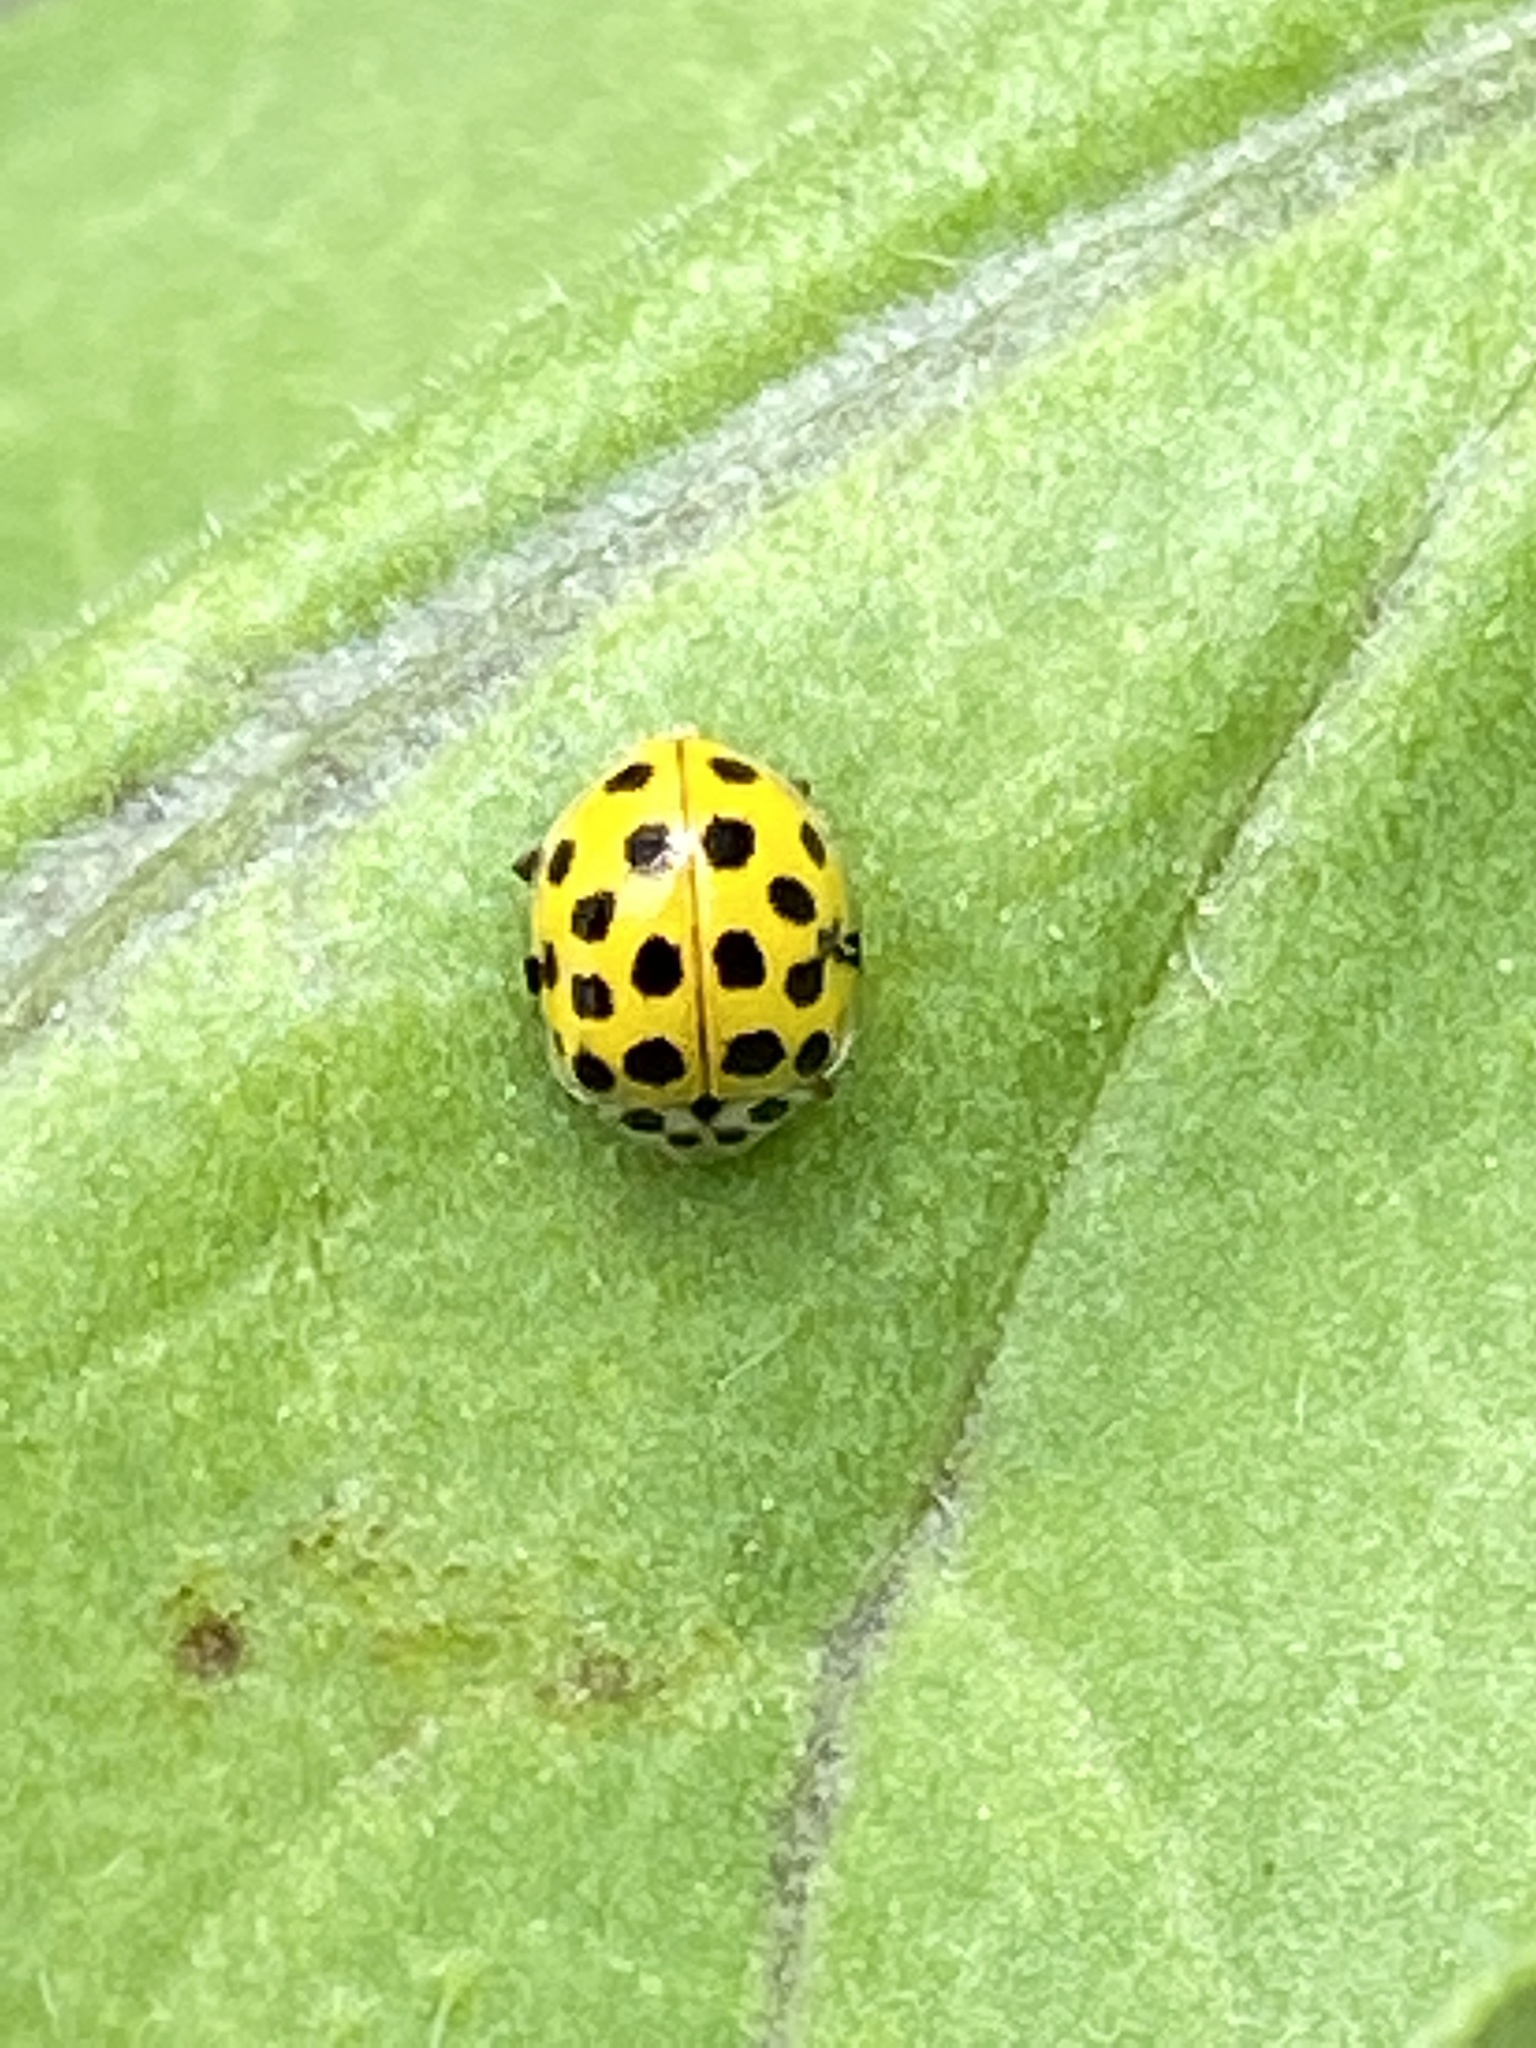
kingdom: Animalia
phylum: Arthropoda
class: Insecta
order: Coleoptera
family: Coccinellidae
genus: Psyllobora
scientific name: Psyllobora vigintiduopunctata
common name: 22-spot ladybird
